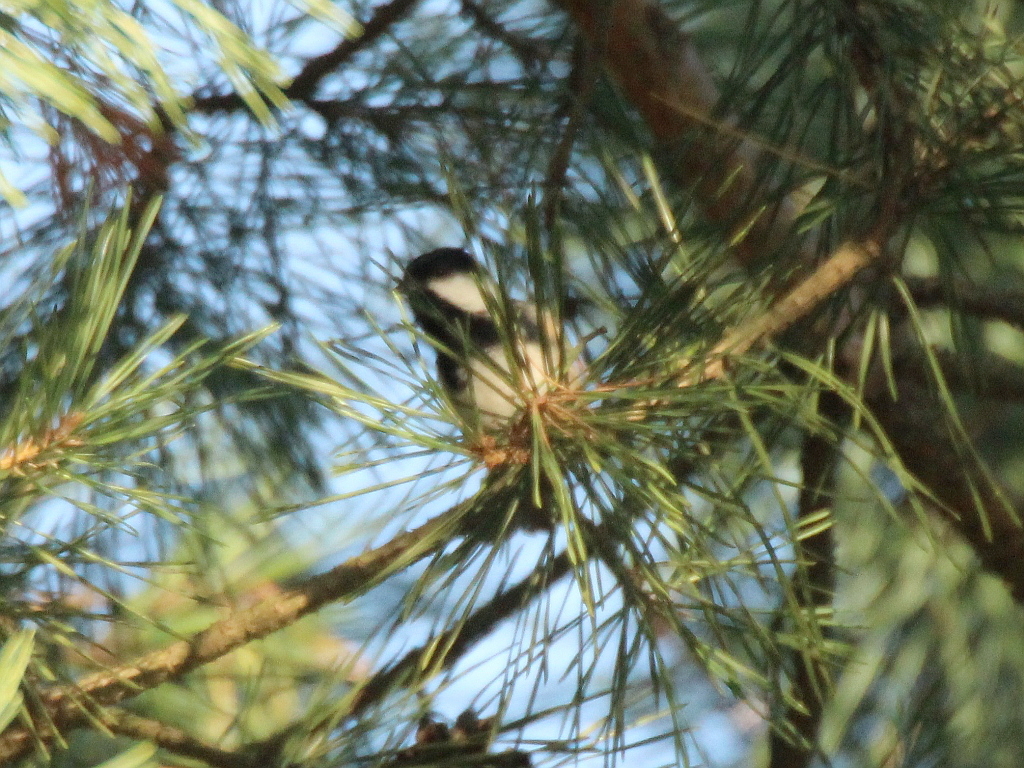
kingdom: Animalia
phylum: Chordata
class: Aves
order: Passeriformes
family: Paridae
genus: Periparus
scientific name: Periparus ater
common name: Coal tit
